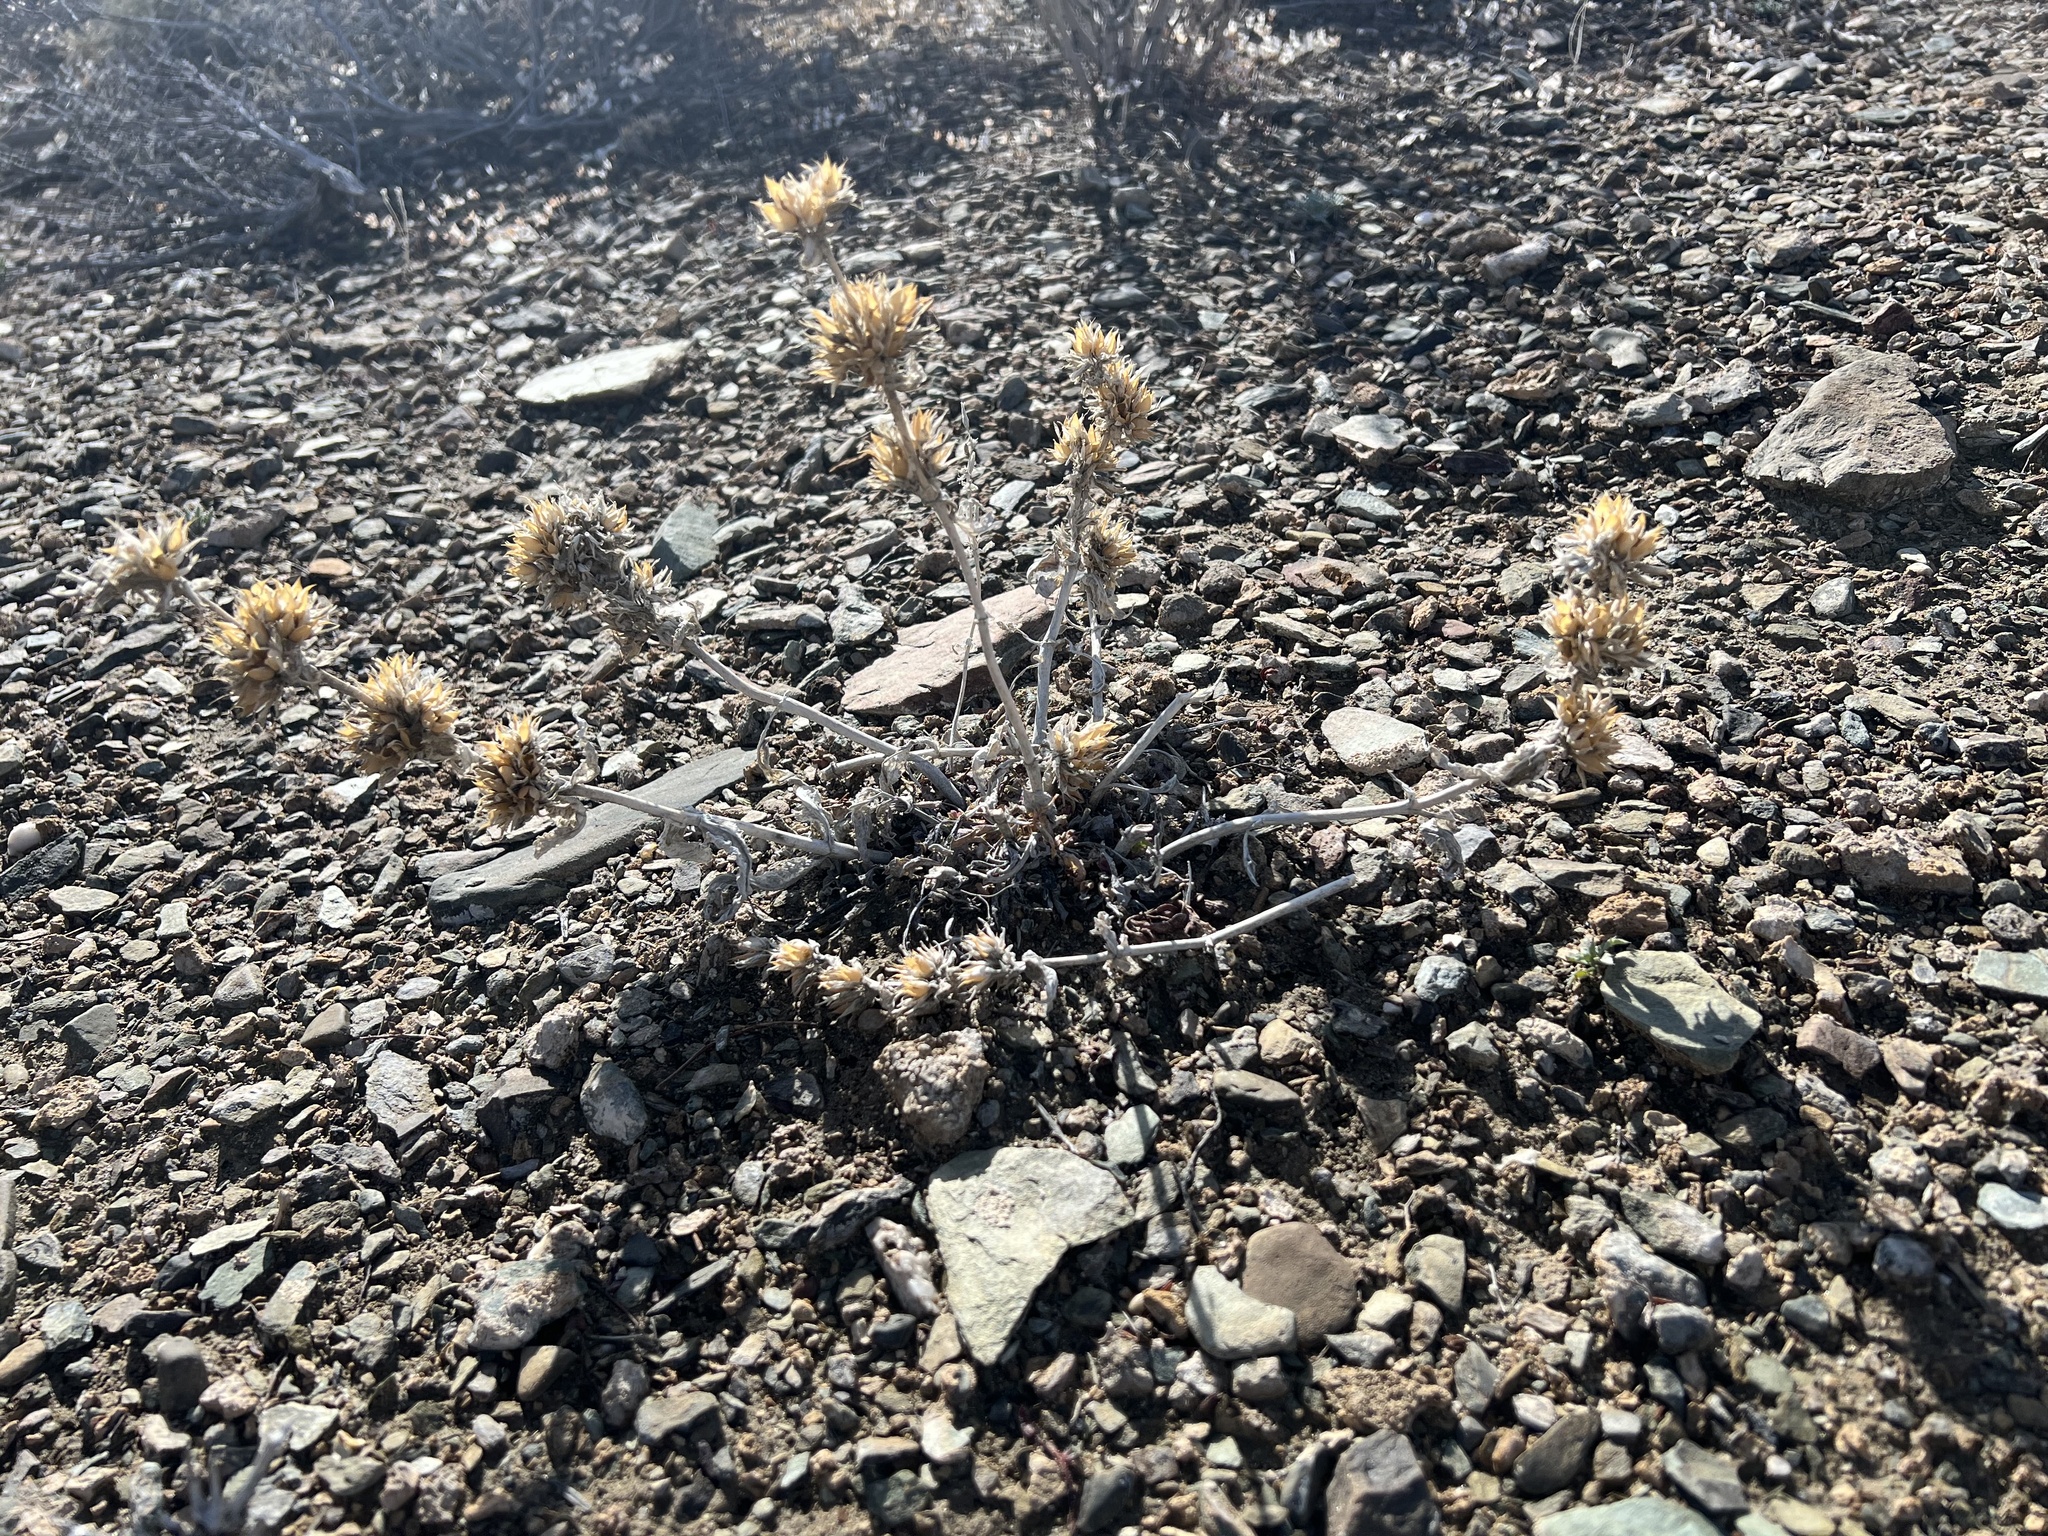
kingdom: Plantae
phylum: Tracheophyta
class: Magnoliopsida
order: Lamiales
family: Plantaginaceae
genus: Penstemon
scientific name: Penstemon monoensis
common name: Mono penstemon
